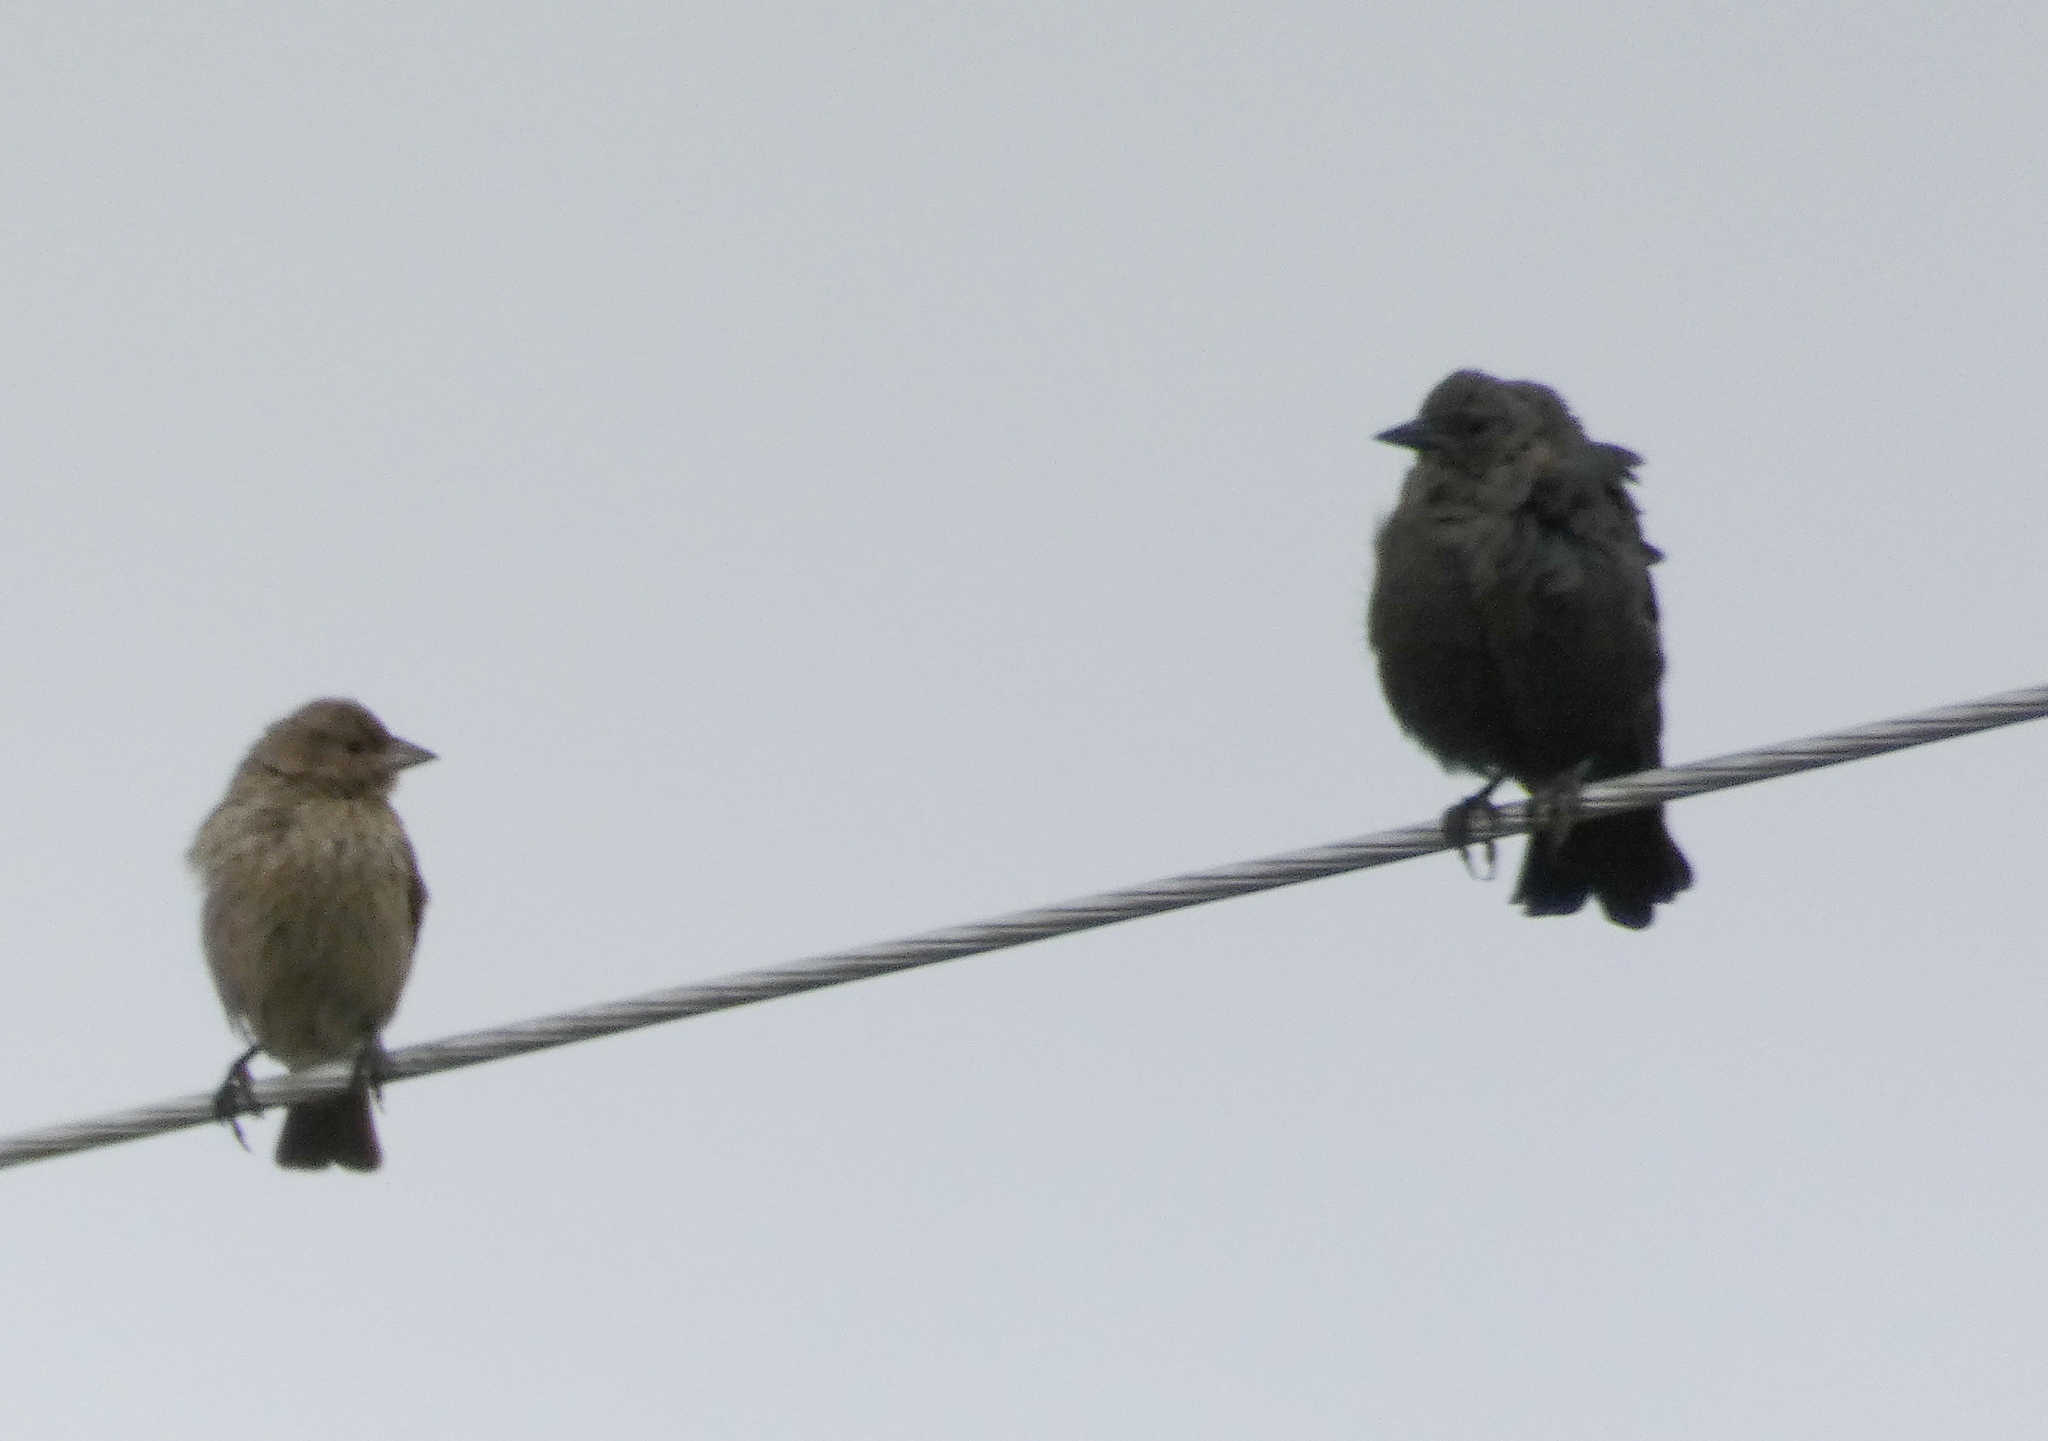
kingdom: Animalia
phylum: Chordata
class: Aves
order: Passeriformes
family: Icteridae
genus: Molothrus
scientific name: Molothrus ater
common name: Brown-headed cowbird
